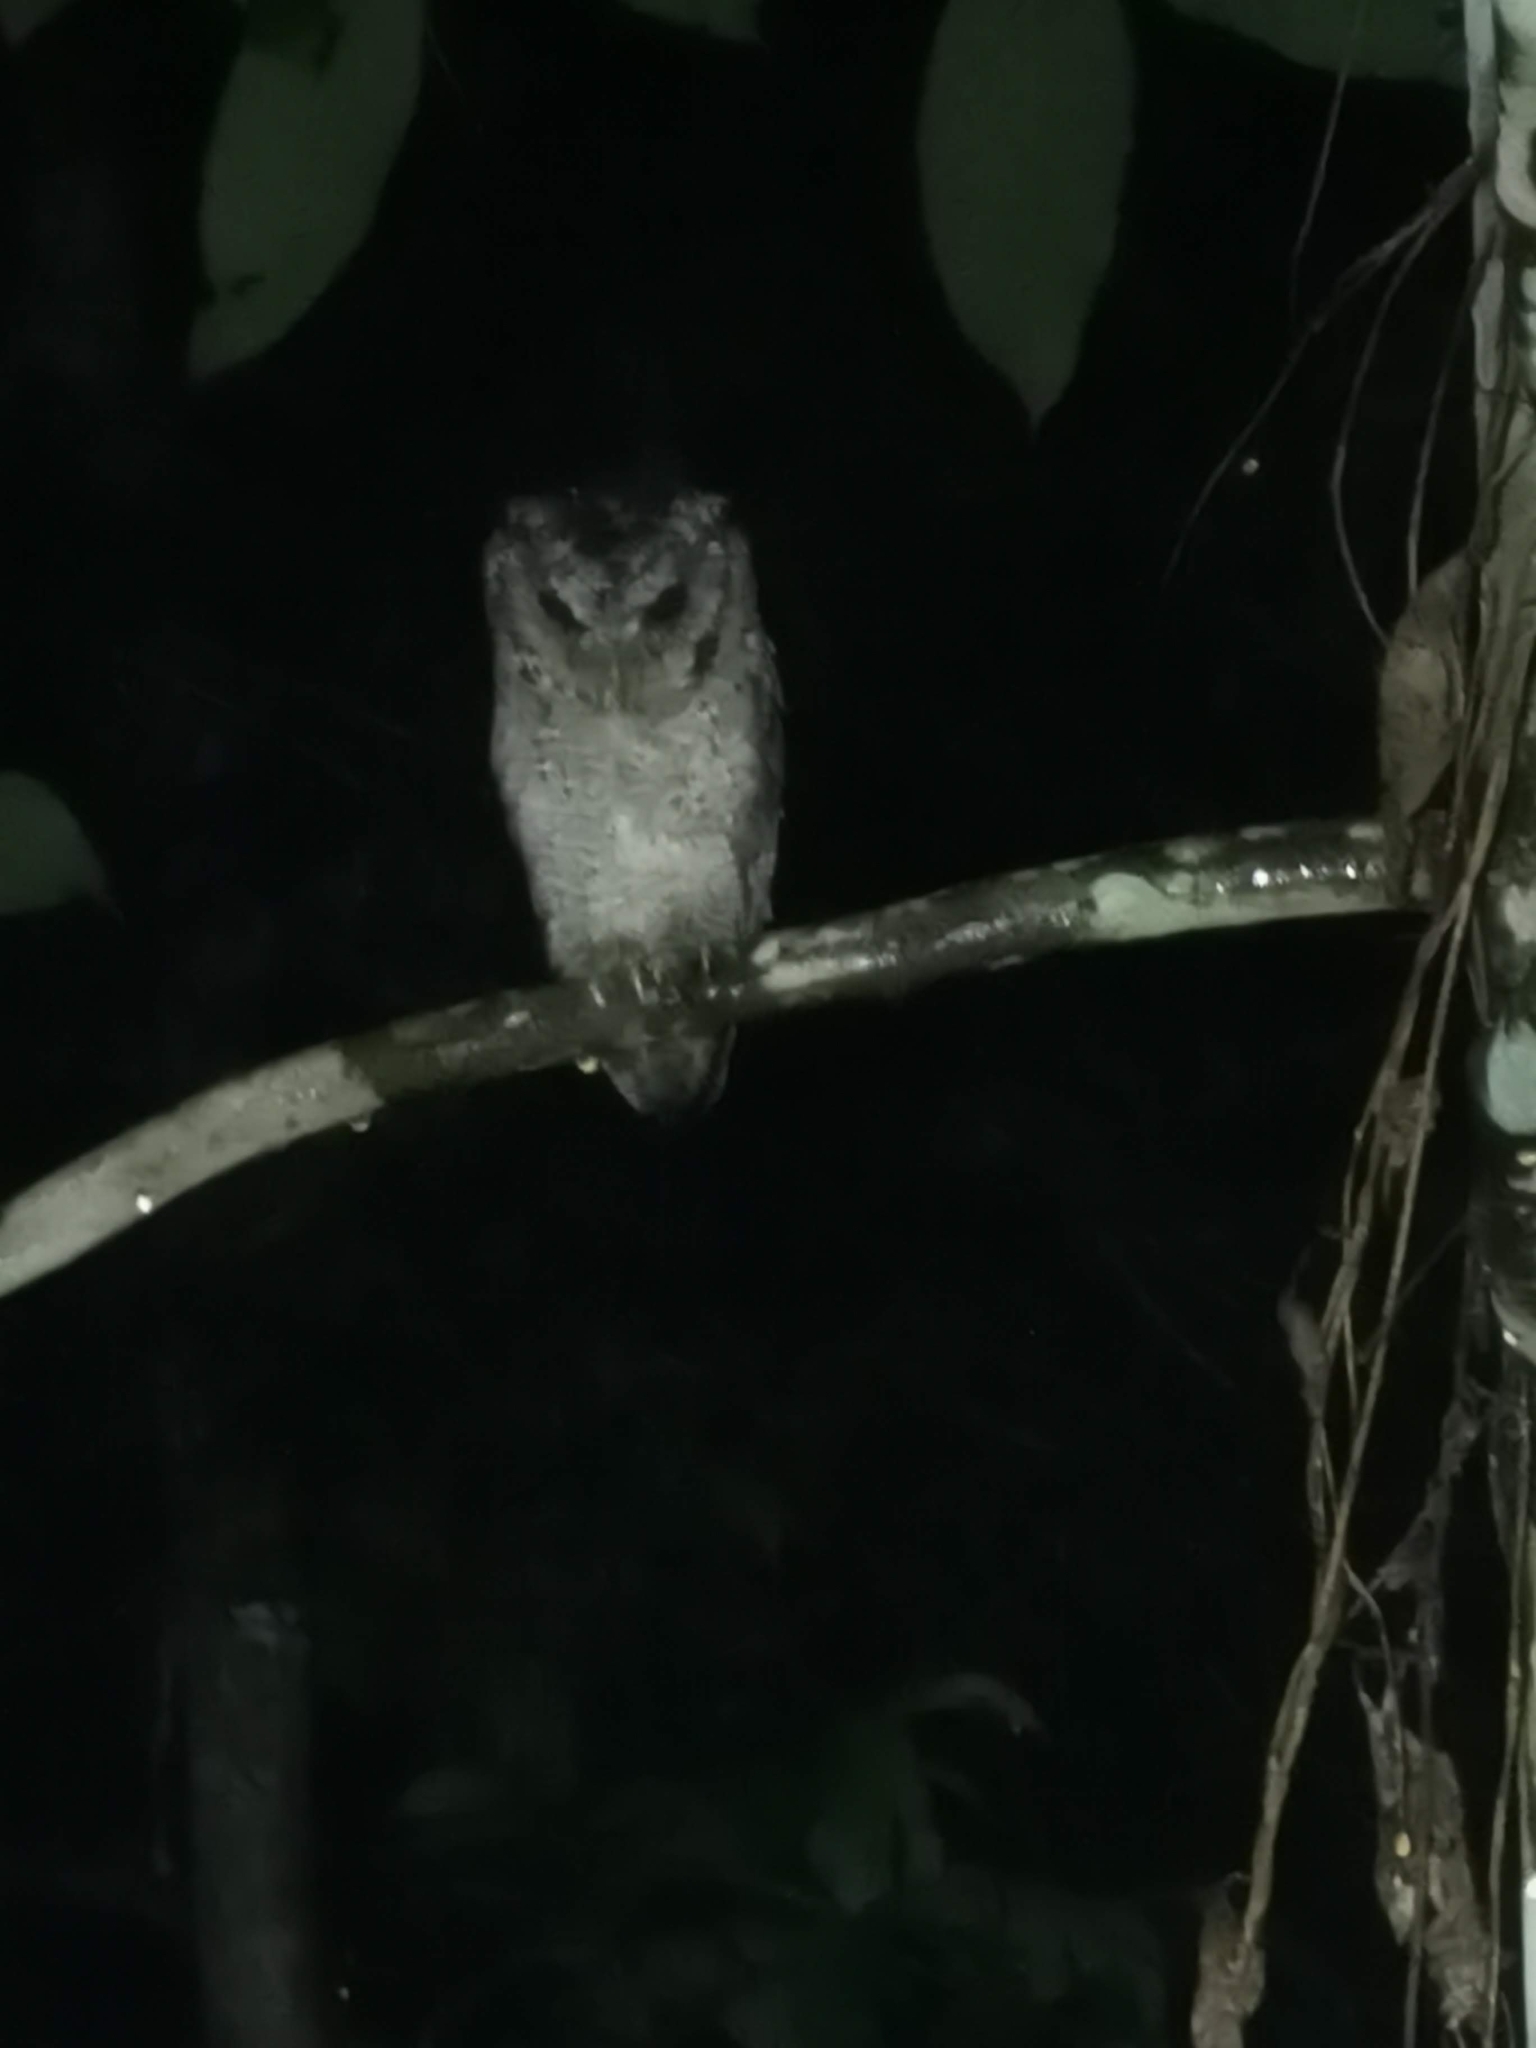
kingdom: Animalia
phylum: Chordata
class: Aves
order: Strigiformes
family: Strigidae
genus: Otus
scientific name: Otus lettia
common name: Collared scops owl
